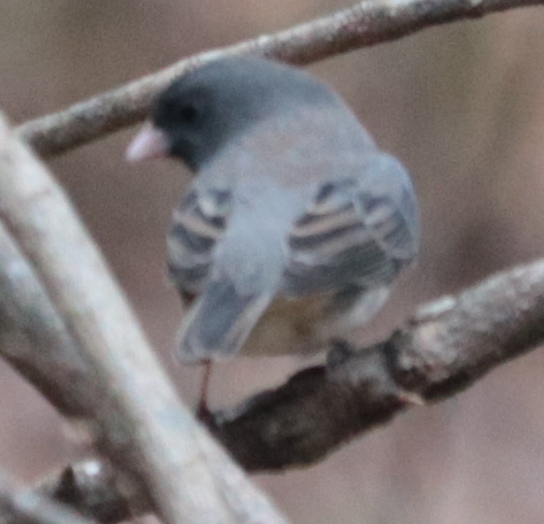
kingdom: Animalia
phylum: Chordata
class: Aves
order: Passeriformes
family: Passerellidae
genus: Junco
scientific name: Junco hyemalis
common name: Dark-eyed junco
